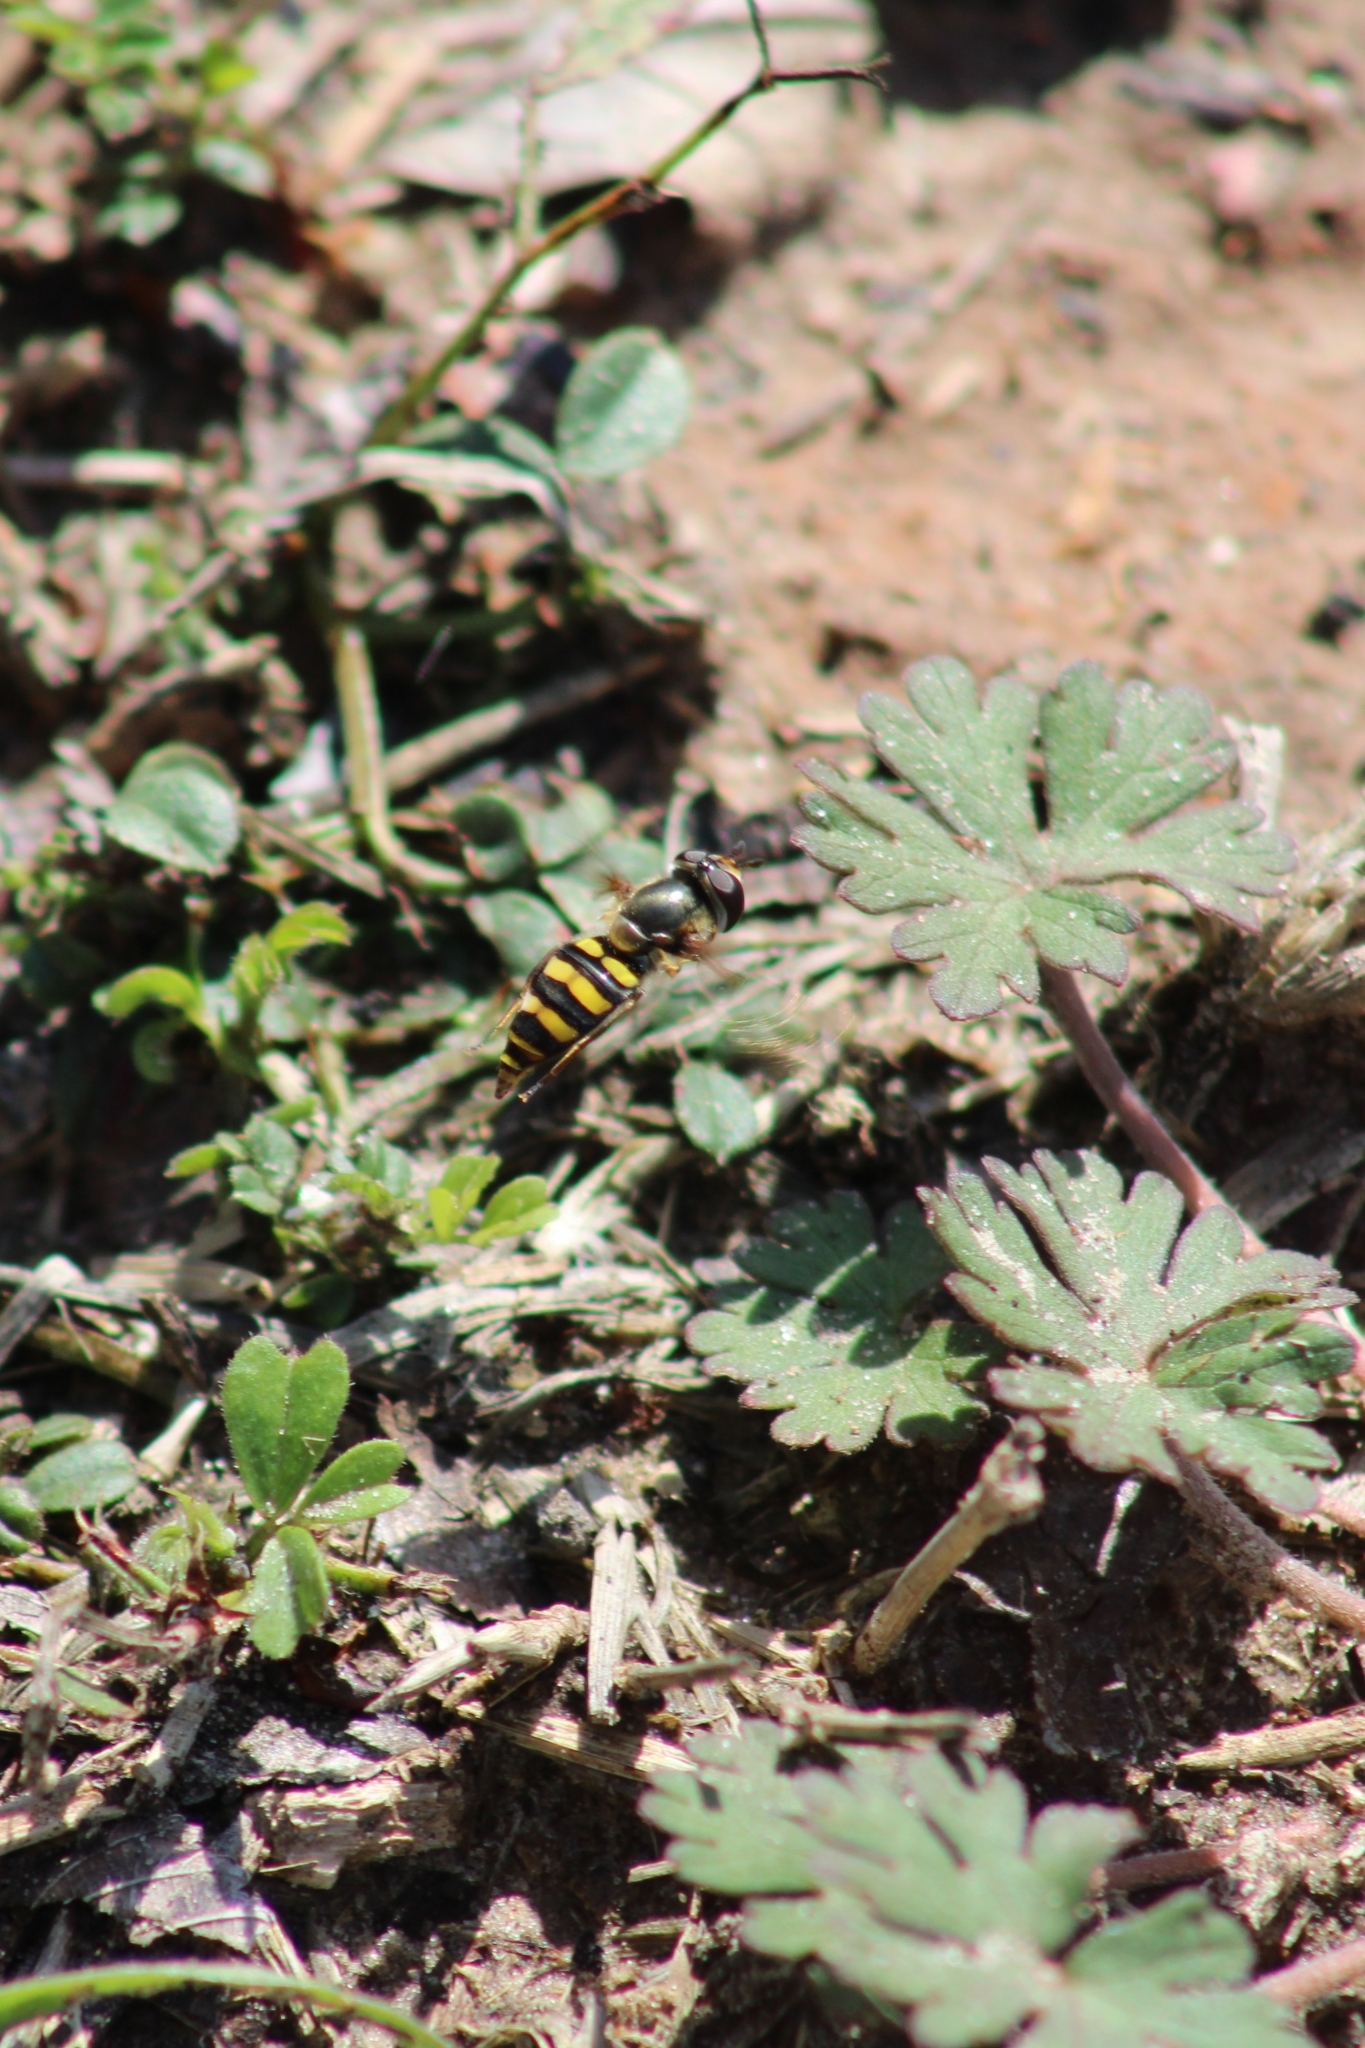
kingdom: Animalia
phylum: Arthropoda
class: Insecta
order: Diptera
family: Syrphidae
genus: Eupeodes
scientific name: Eupeodes
